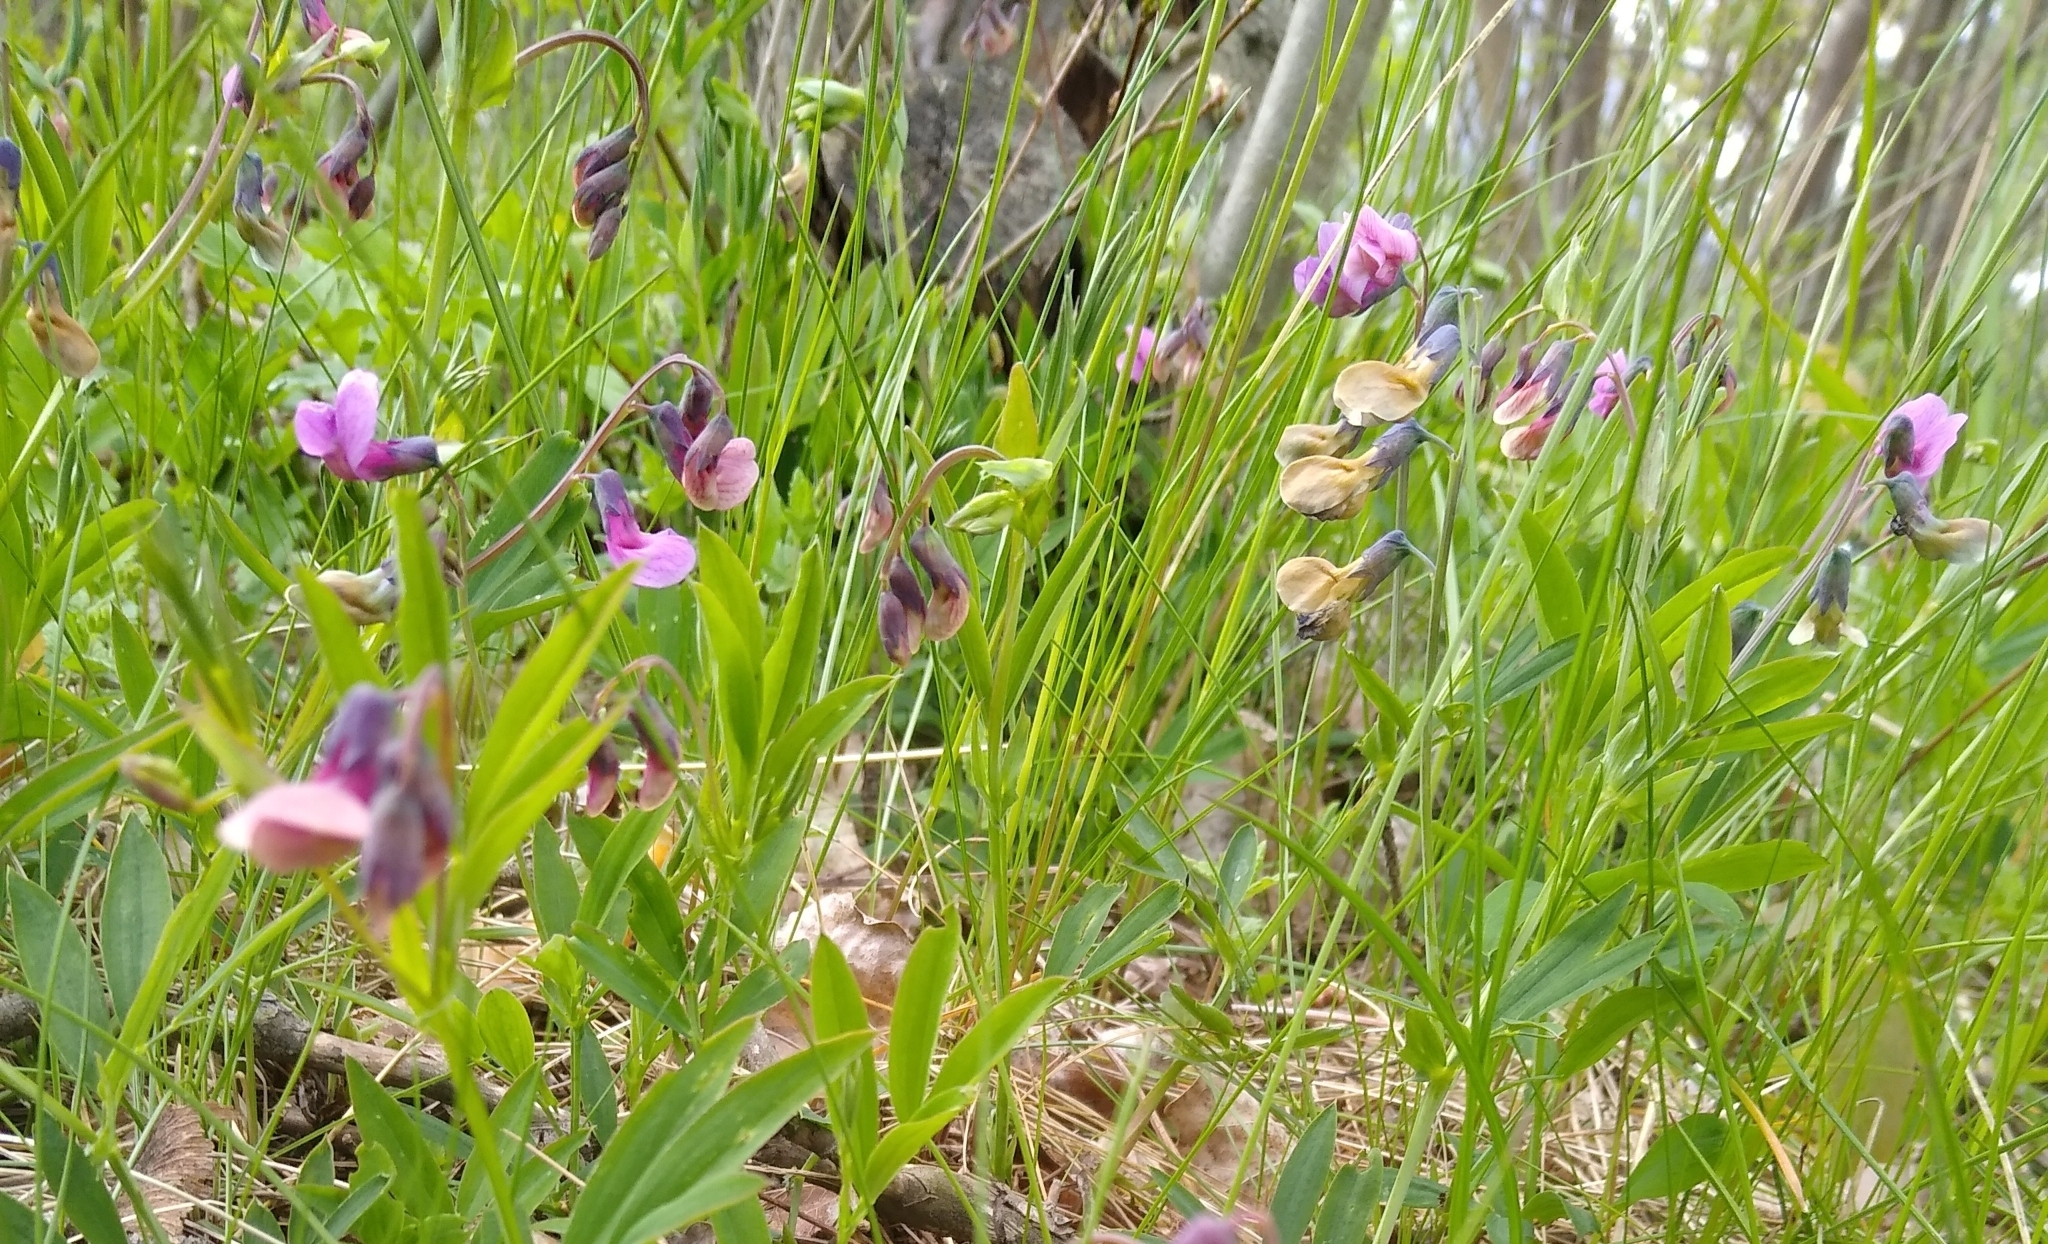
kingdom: Plantae
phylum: Tracheophyta
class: Magnoliopsida
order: Fabales
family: Fabaceae
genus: Lathyrus
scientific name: Lathyrus linifolius
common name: Bitter-vetch
